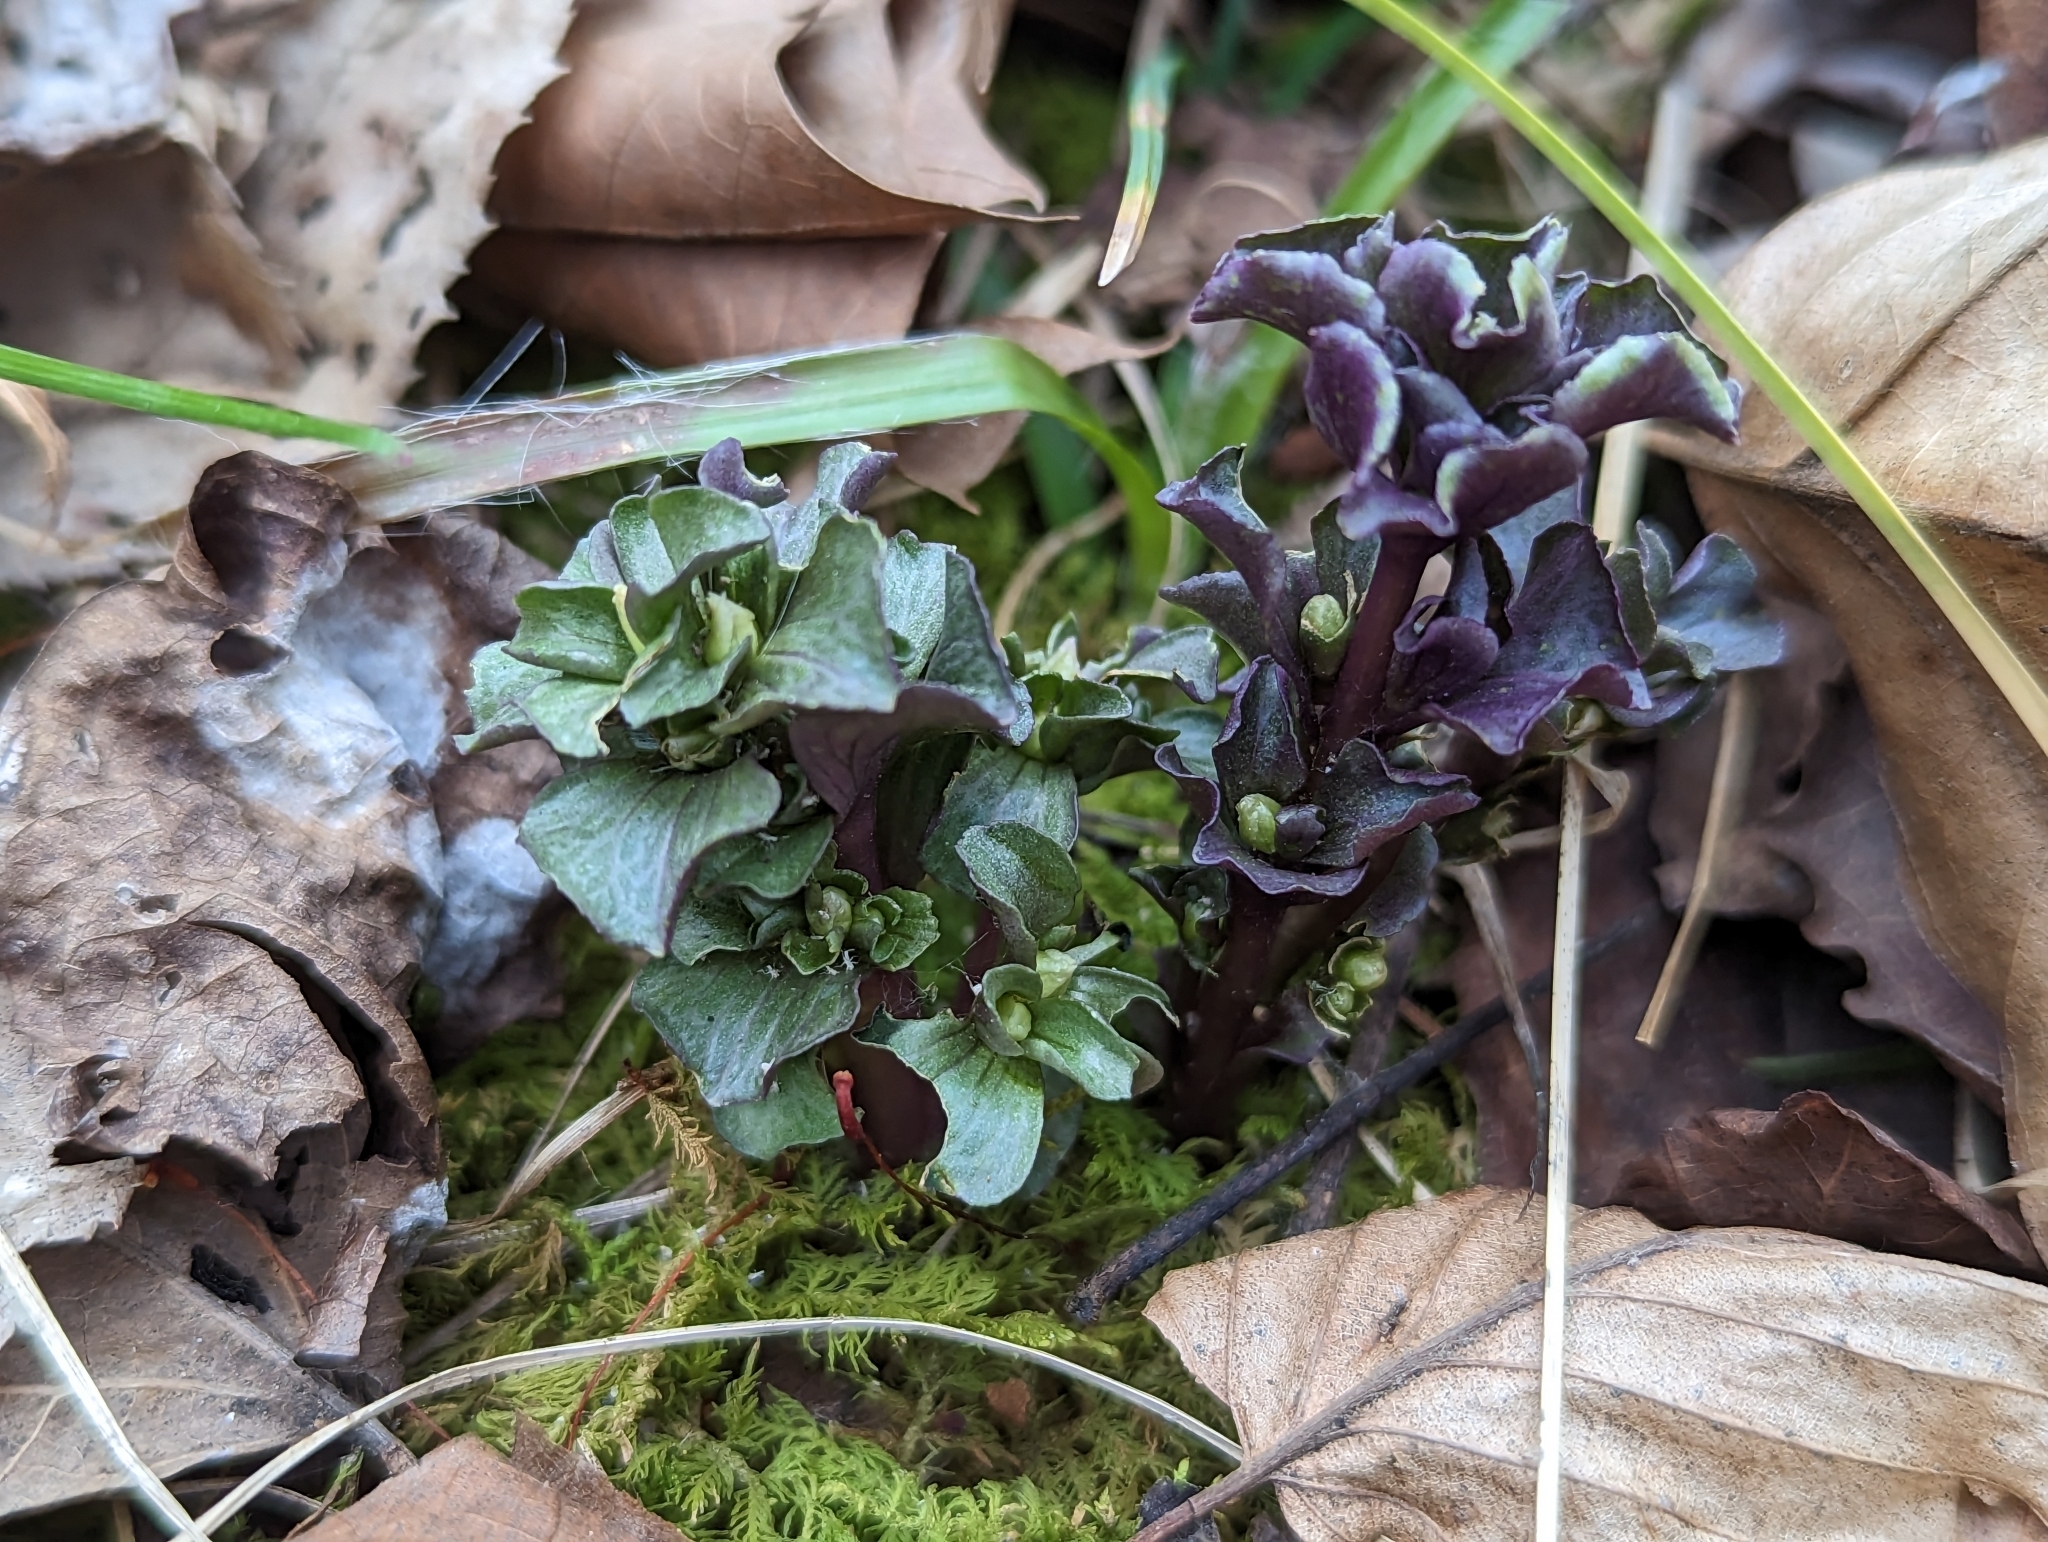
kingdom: Plantae
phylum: Tracheophyta
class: Magnoliopsida
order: Gentianales
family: Gentianaceae
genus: Obolaria
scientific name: Obolaria virginica
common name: Pennywort
